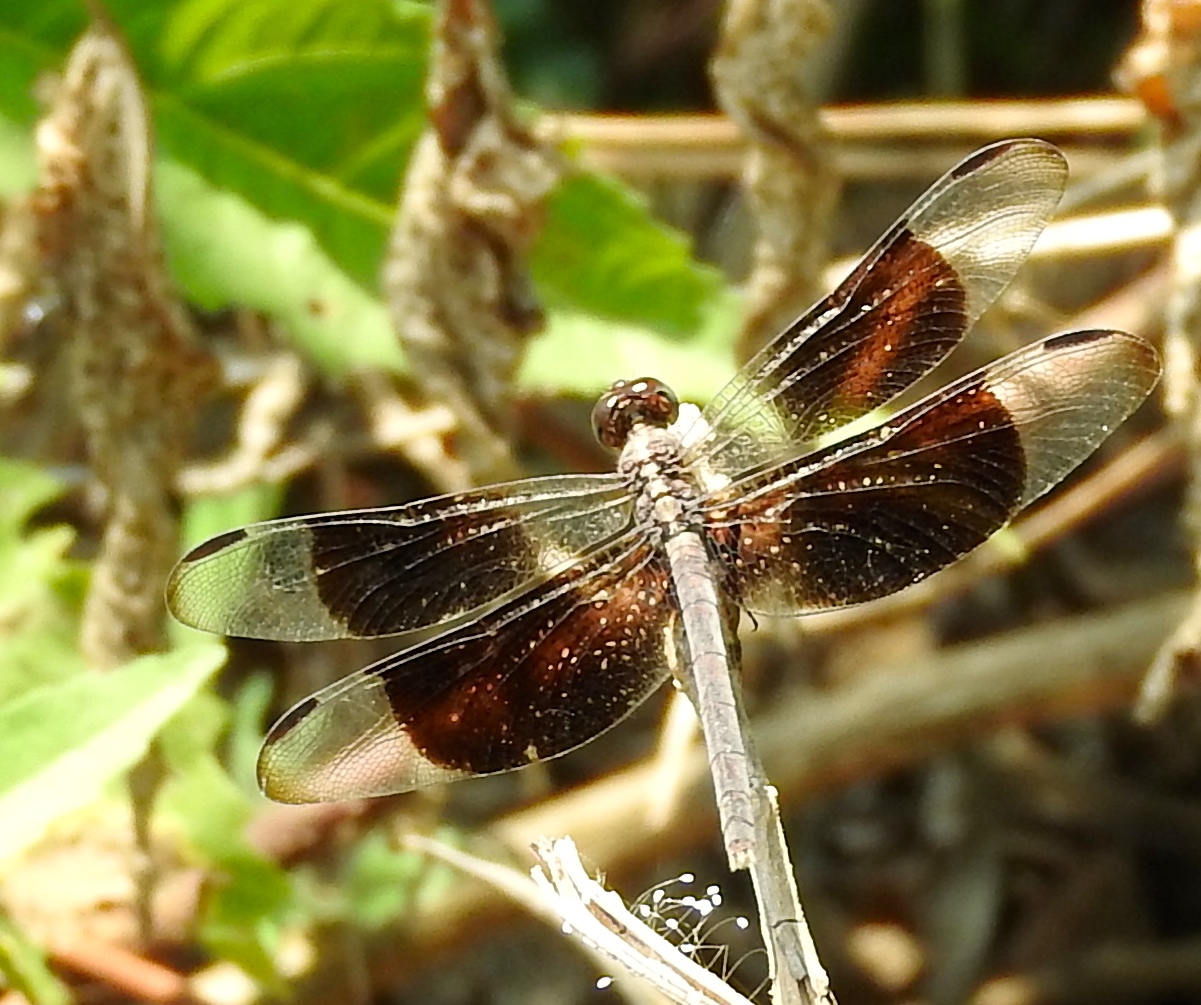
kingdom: Animalia
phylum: Arthropoda
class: Insecta
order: Odonata
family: Libellulidae
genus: Erythrodiplax
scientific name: Erythrodiplax funerea
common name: Black-winged dragonlet
